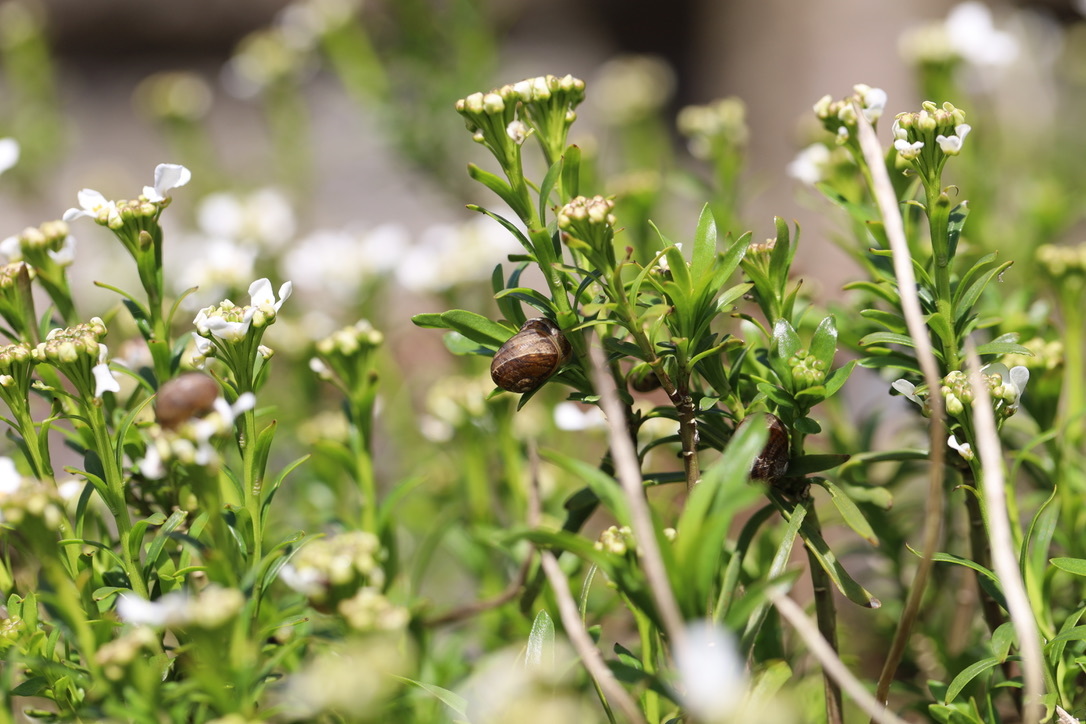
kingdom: Animalia
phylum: Mollusca
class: Gastropoda
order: Stylommatophora
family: Helicidae
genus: Cornu
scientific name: Cornu aspersum
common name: Brown garden snail
